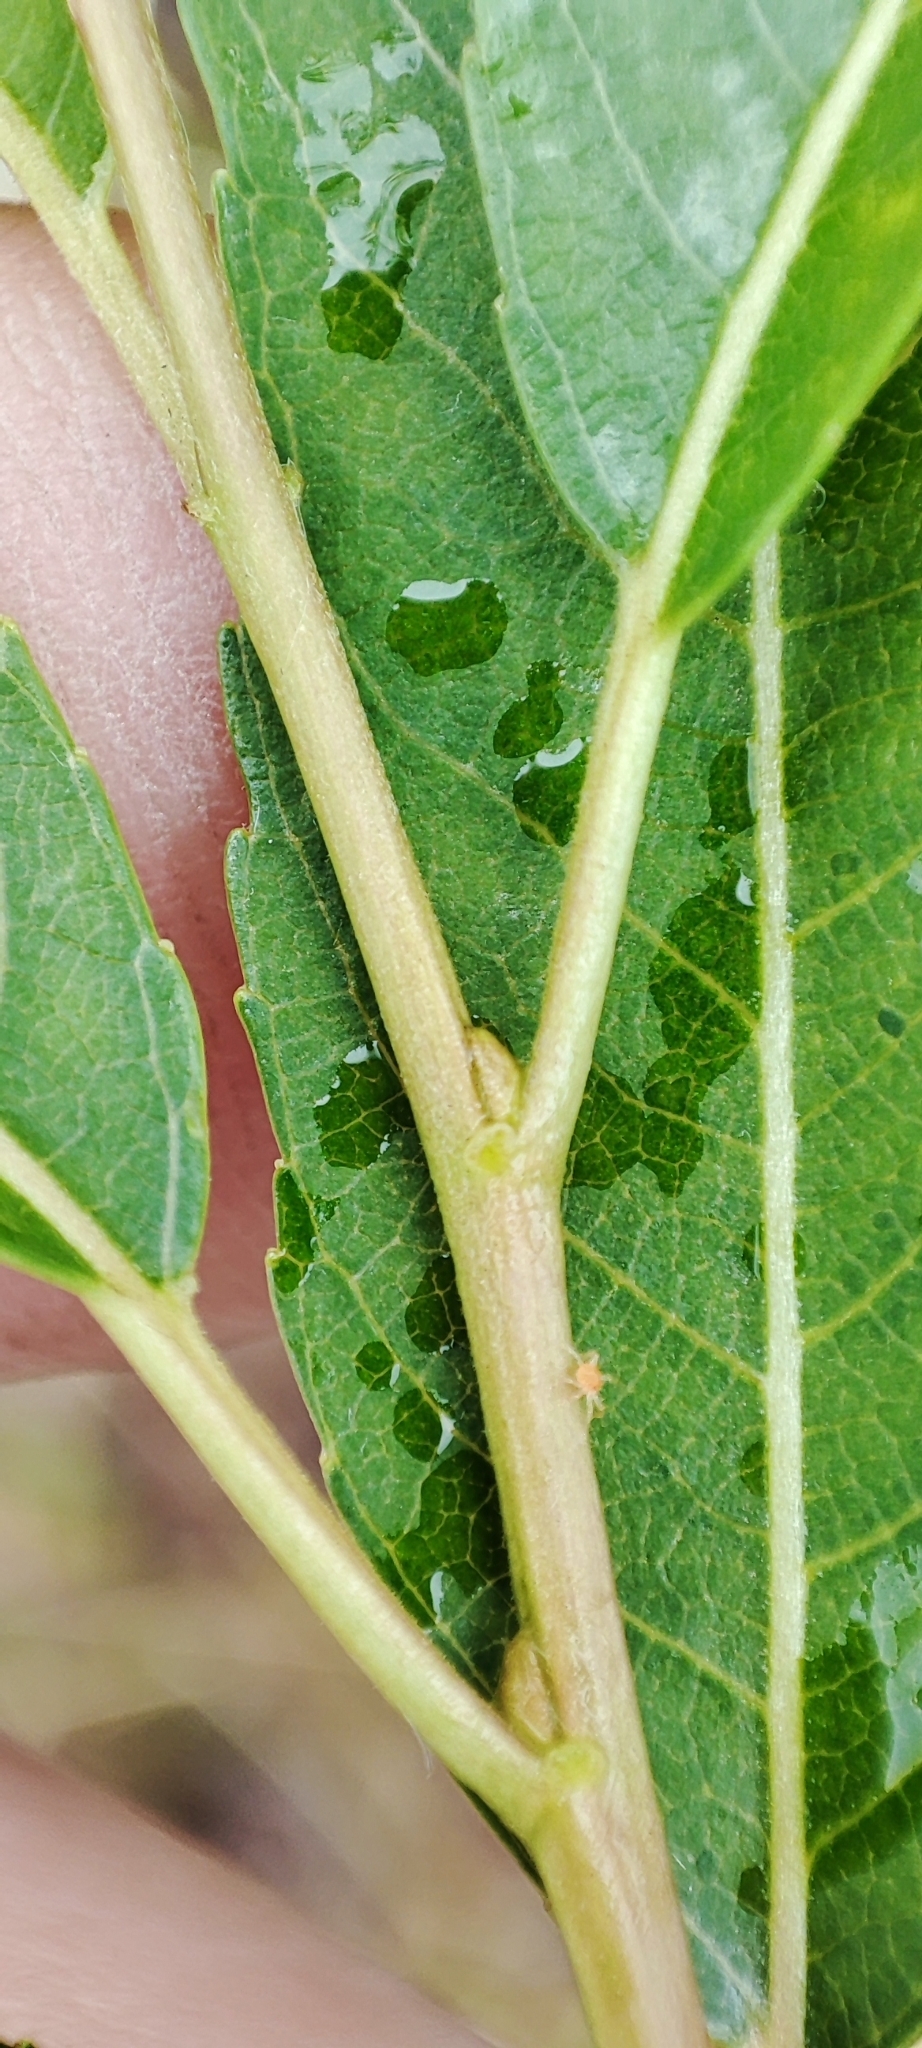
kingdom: Plantae
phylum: Tracheophyta
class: Magnoliopsida
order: Malpighiales
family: Salicaceae
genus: Salix
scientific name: Salix triandra
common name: Almond willow
